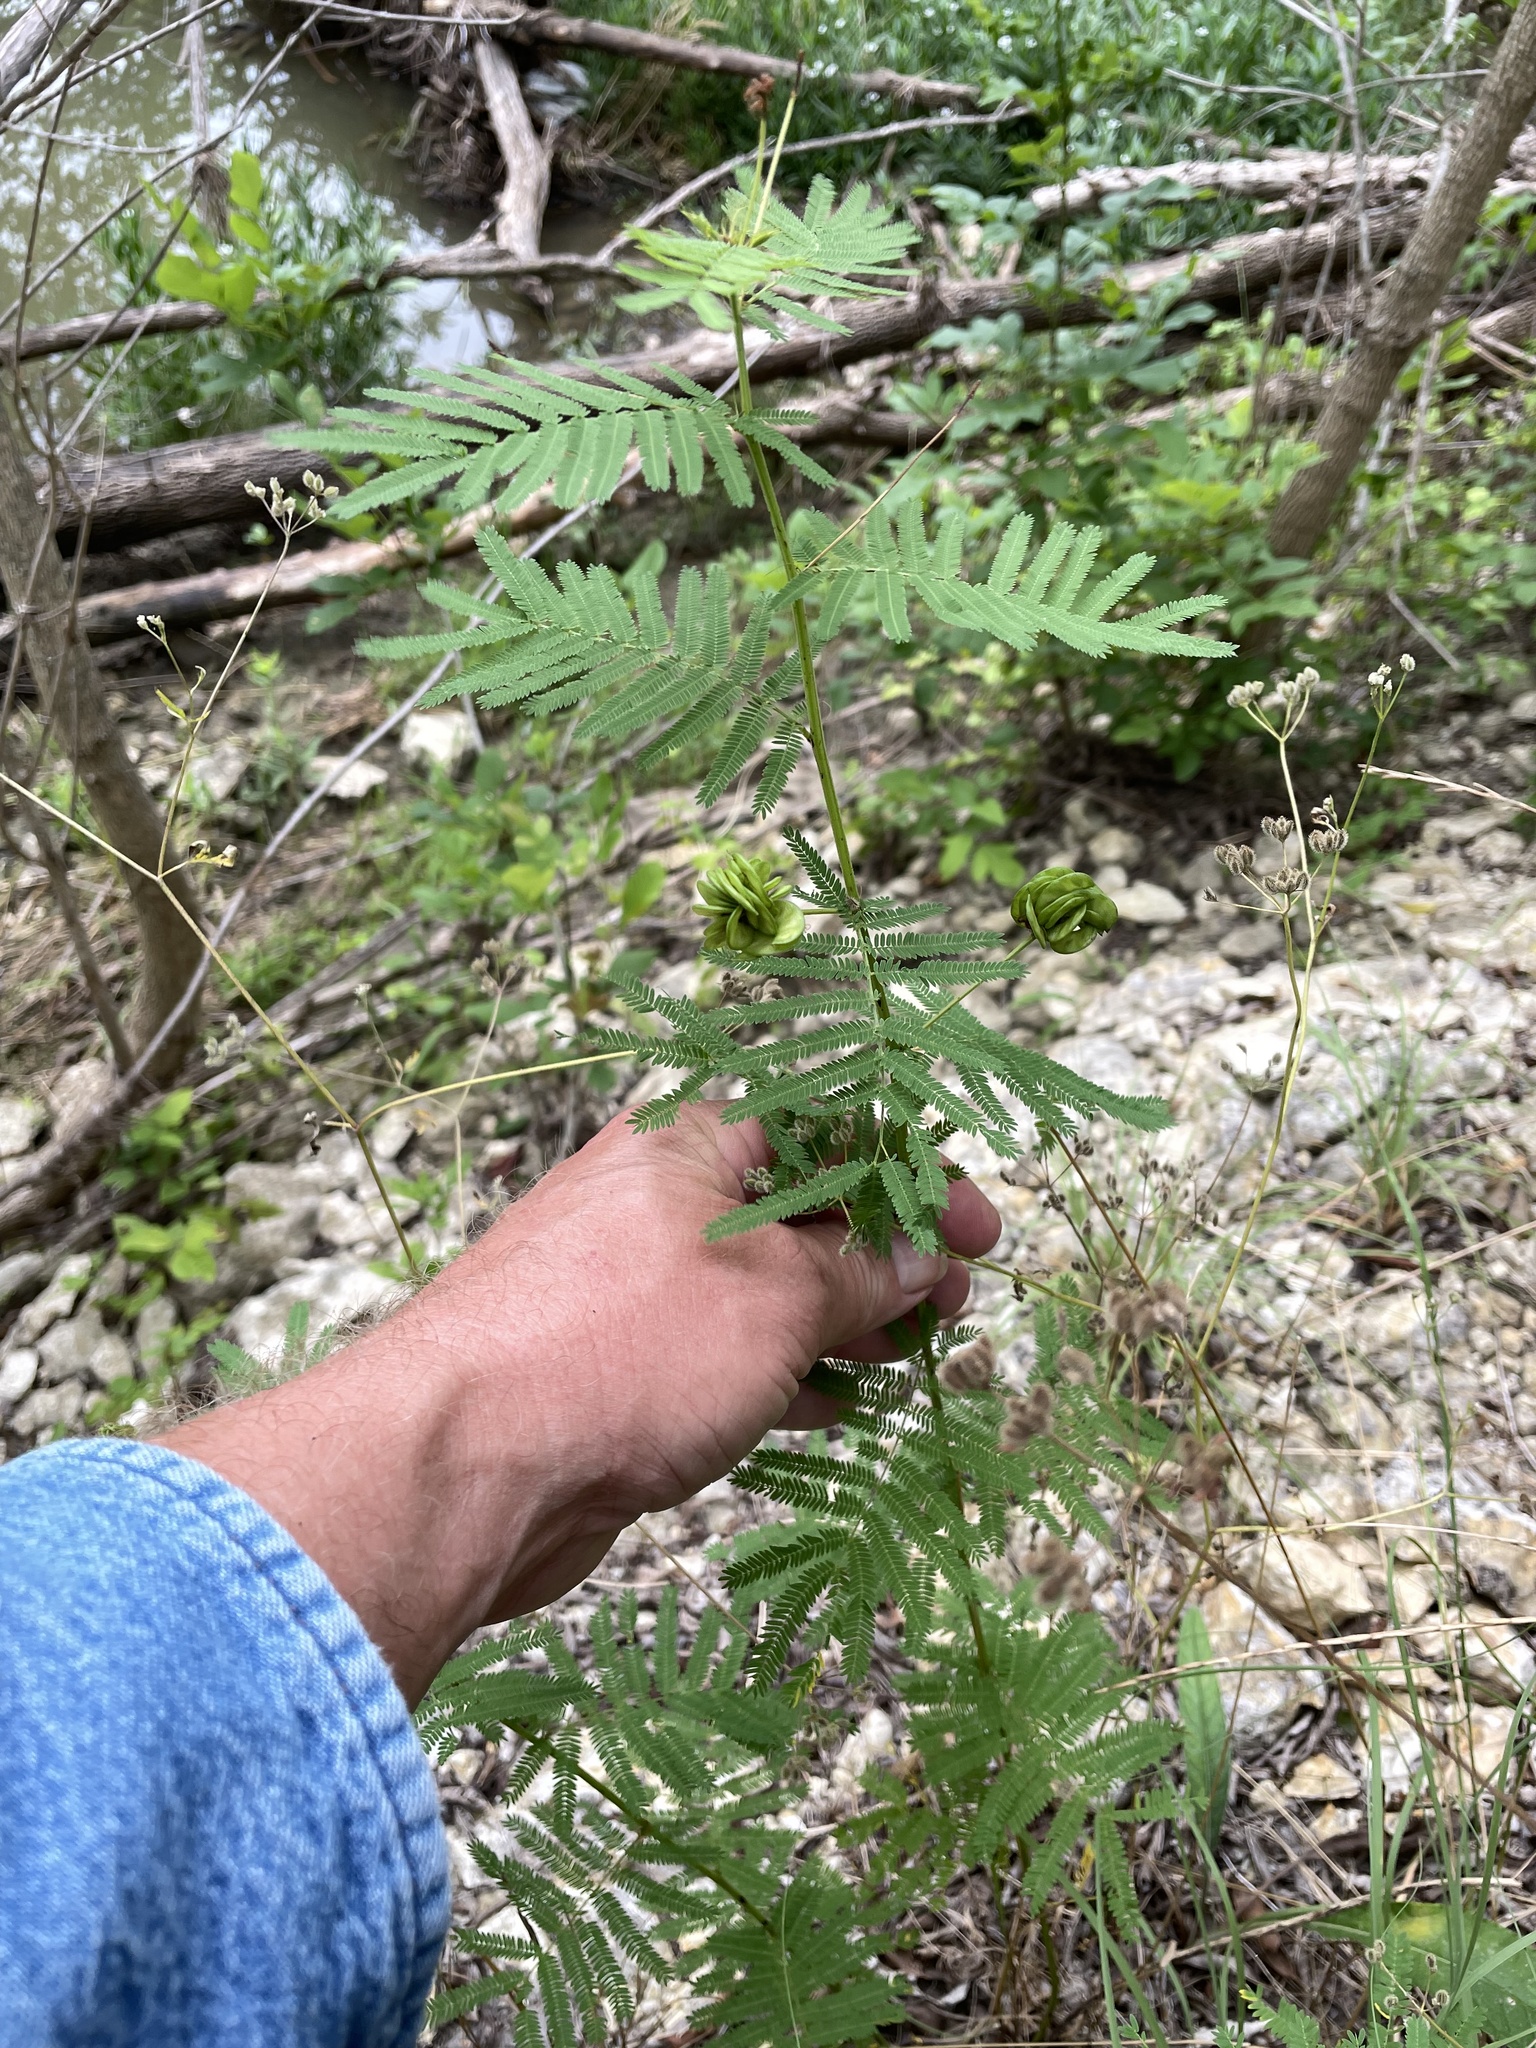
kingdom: Plantae
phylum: Tracheophyta
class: Magnoliopsida
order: Fabales
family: Fabaceae
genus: Desmanthus
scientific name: Desmanthus illinoensis
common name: Illinois bundle-flower
